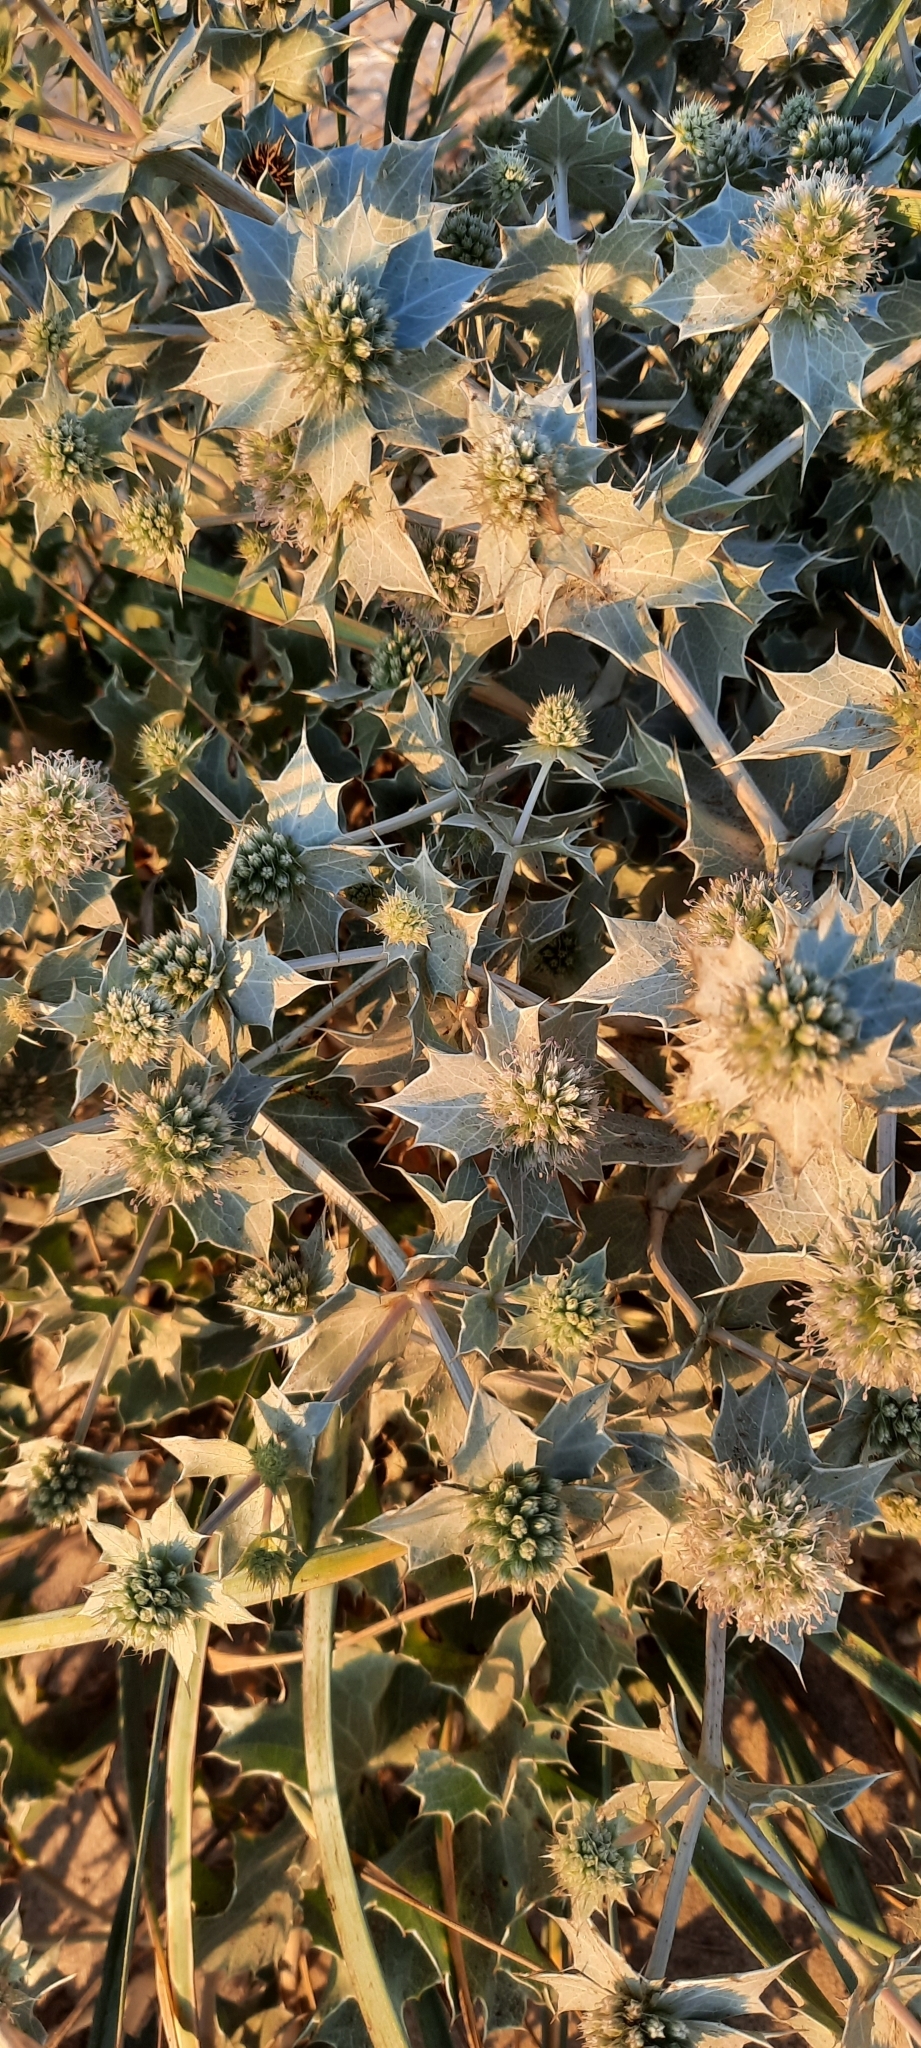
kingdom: Plantae
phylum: Tracheophyta
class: Magnoliopsida
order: Apiales
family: Apiaceae
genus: Eryngium
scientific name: Eryngium maritimum
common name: Sea-holly
